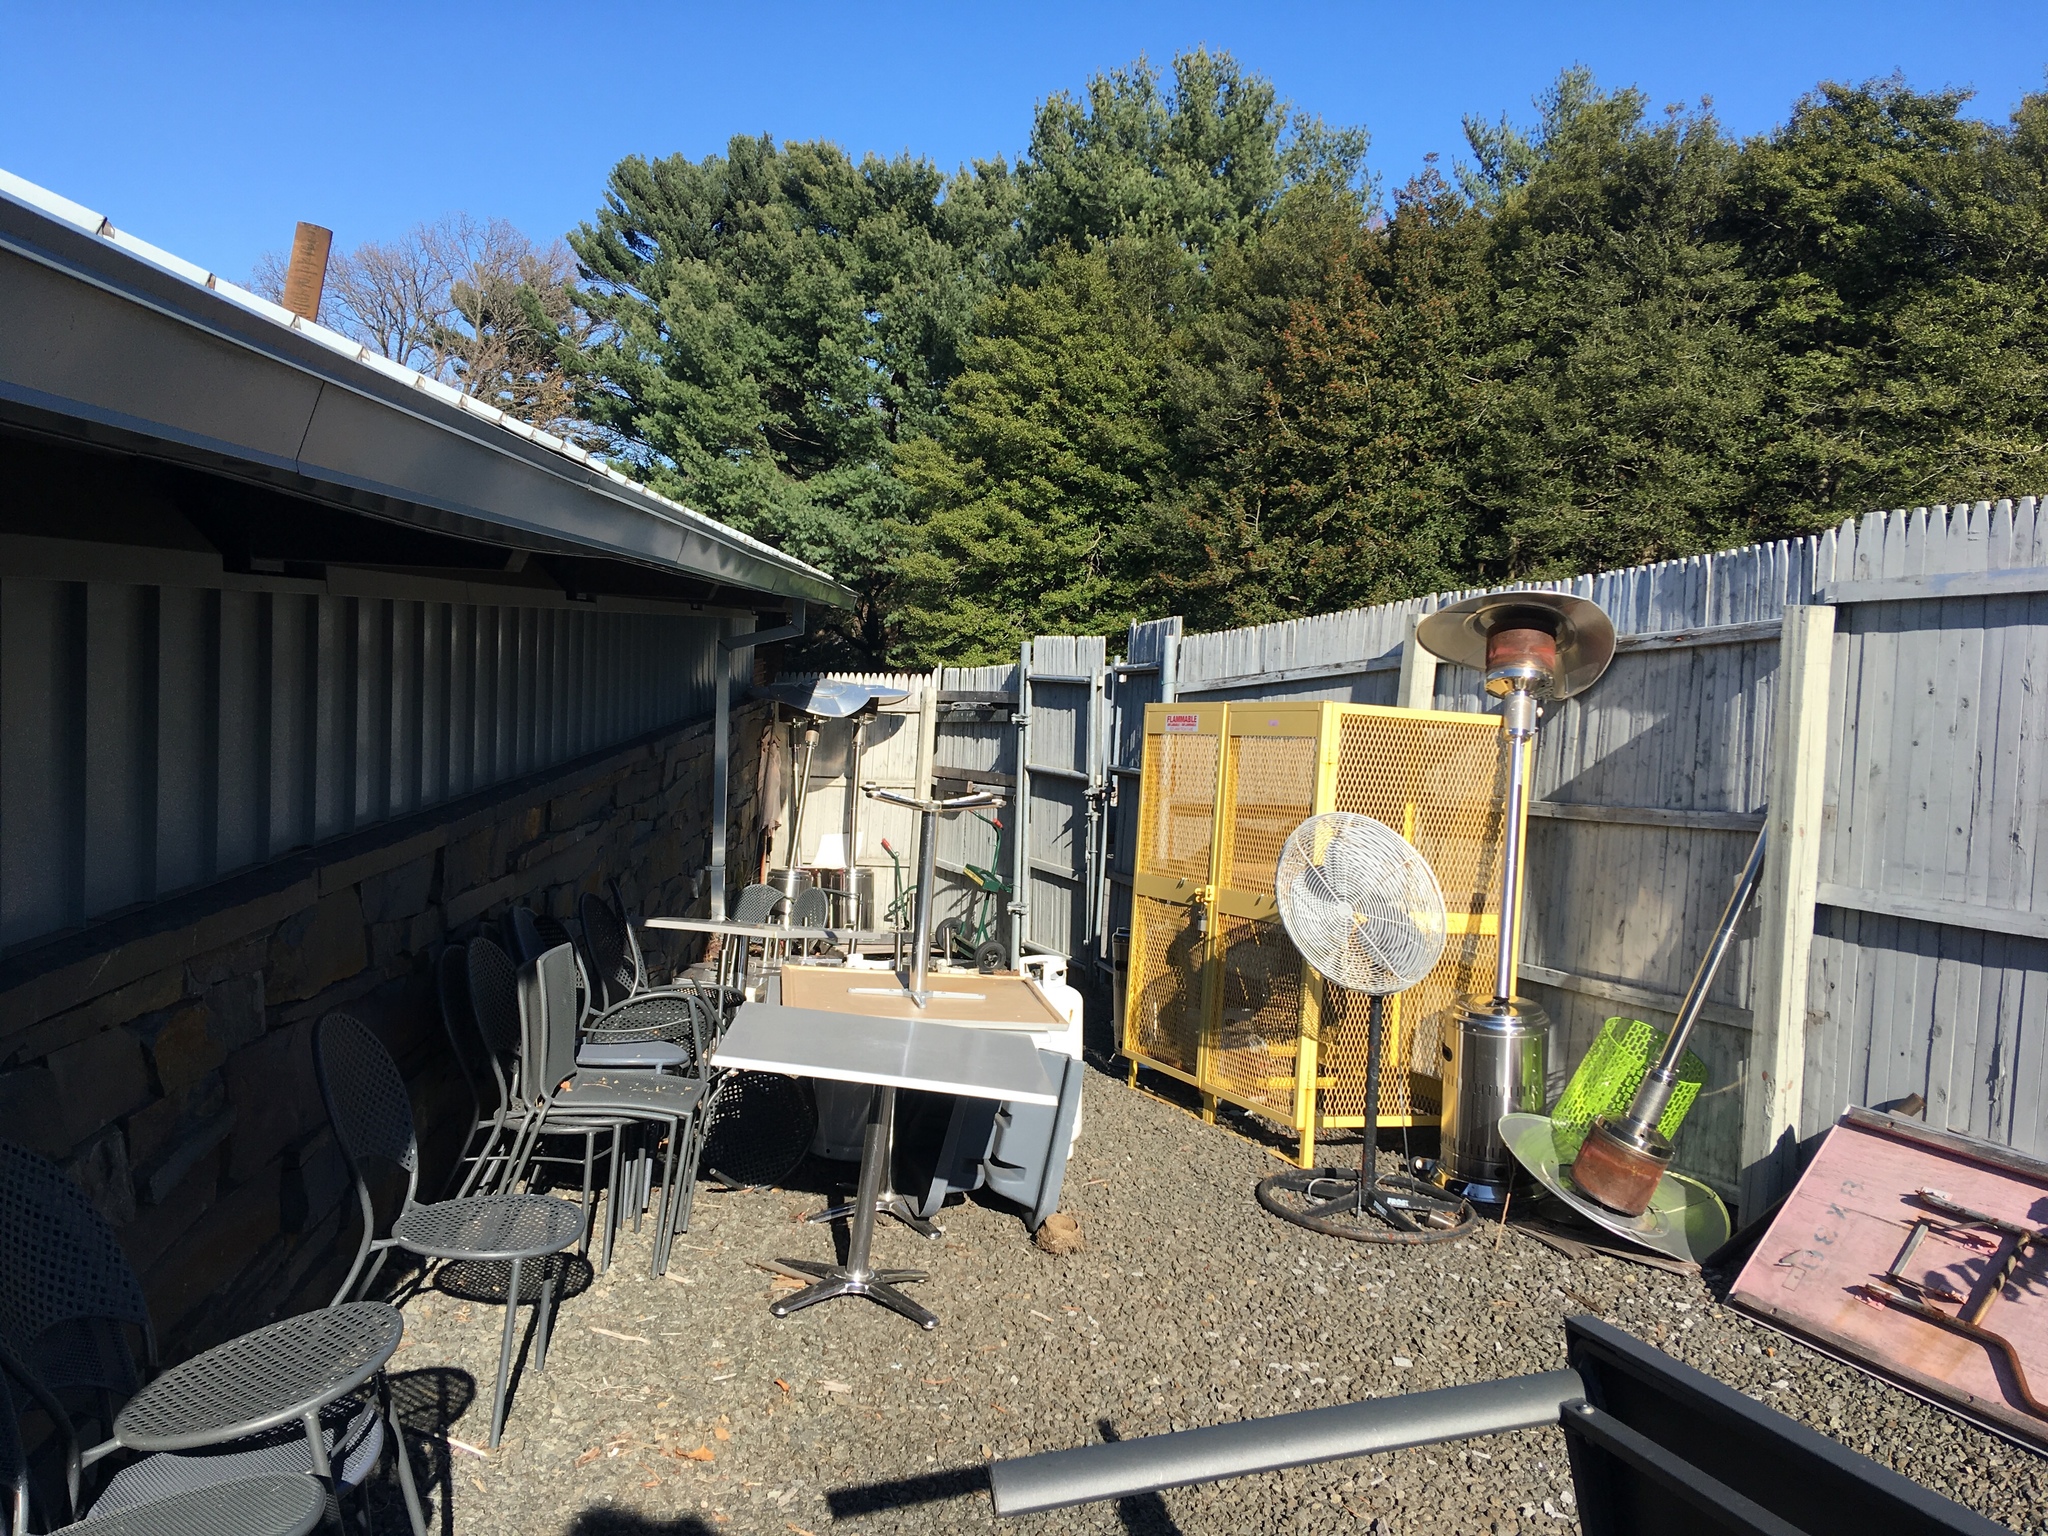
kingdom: Animalia
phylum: Chordata
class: Aves
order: Passeriformes
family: Turdidae
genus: Turdus
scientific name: Turdus migratorius
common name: American robin
